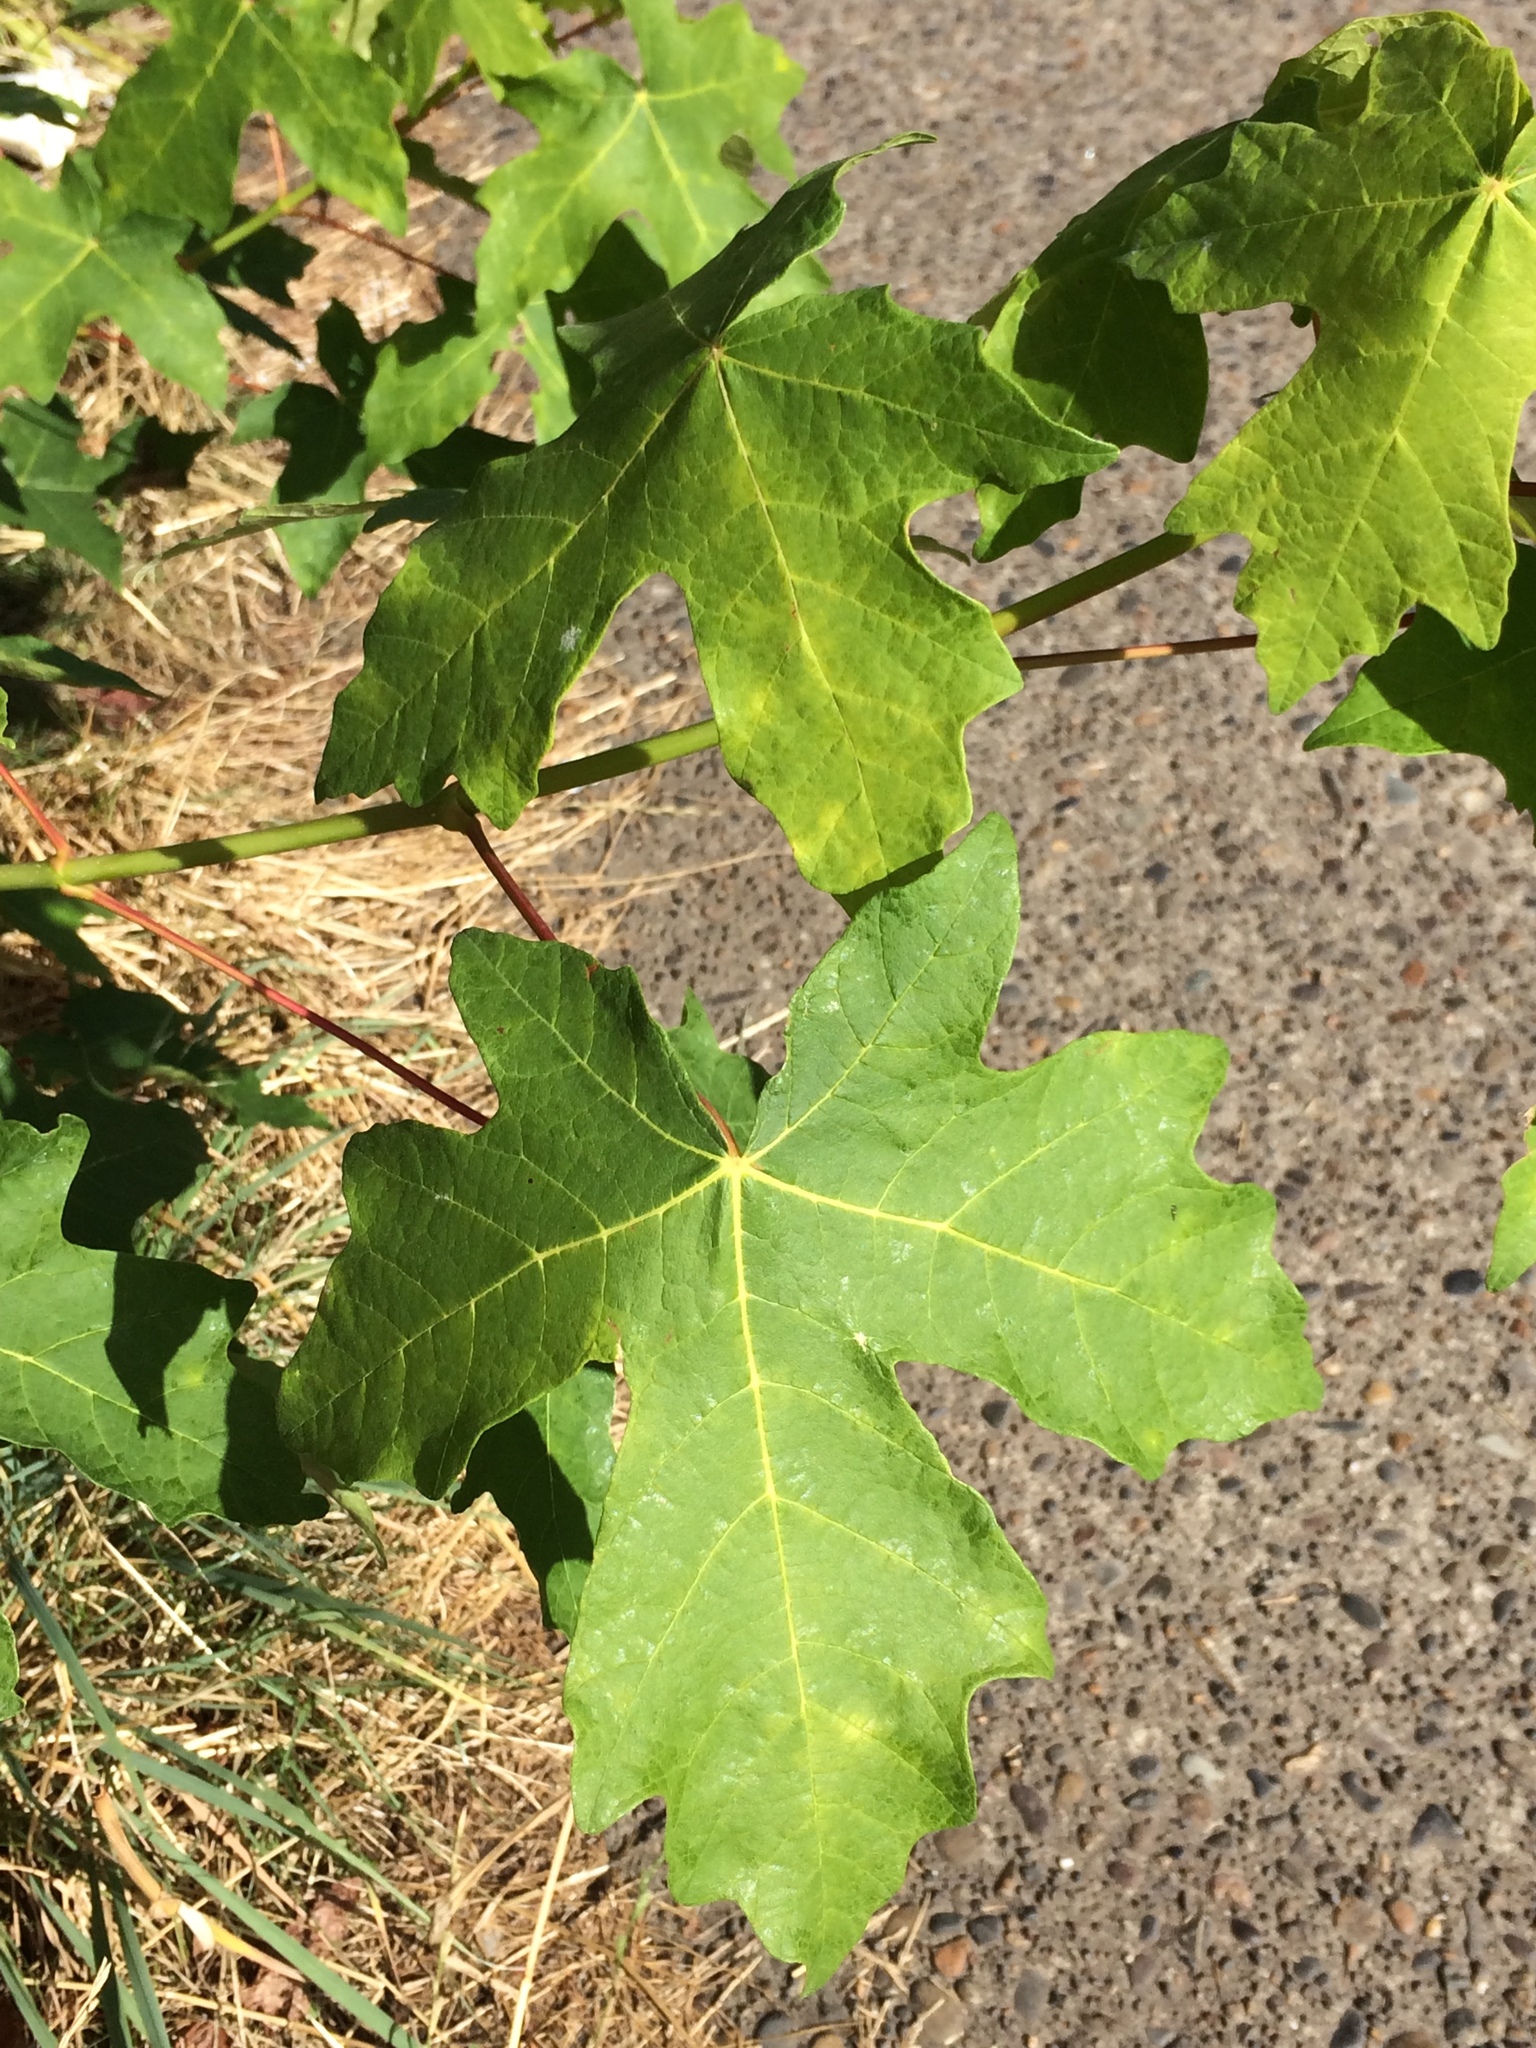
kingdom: Plantae
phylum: Tracheophyta
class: Magnoliopsida
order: Sapindales
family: Sapindaceae
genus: Acer
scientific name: Acer macrophyllum
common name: Oregon maple
